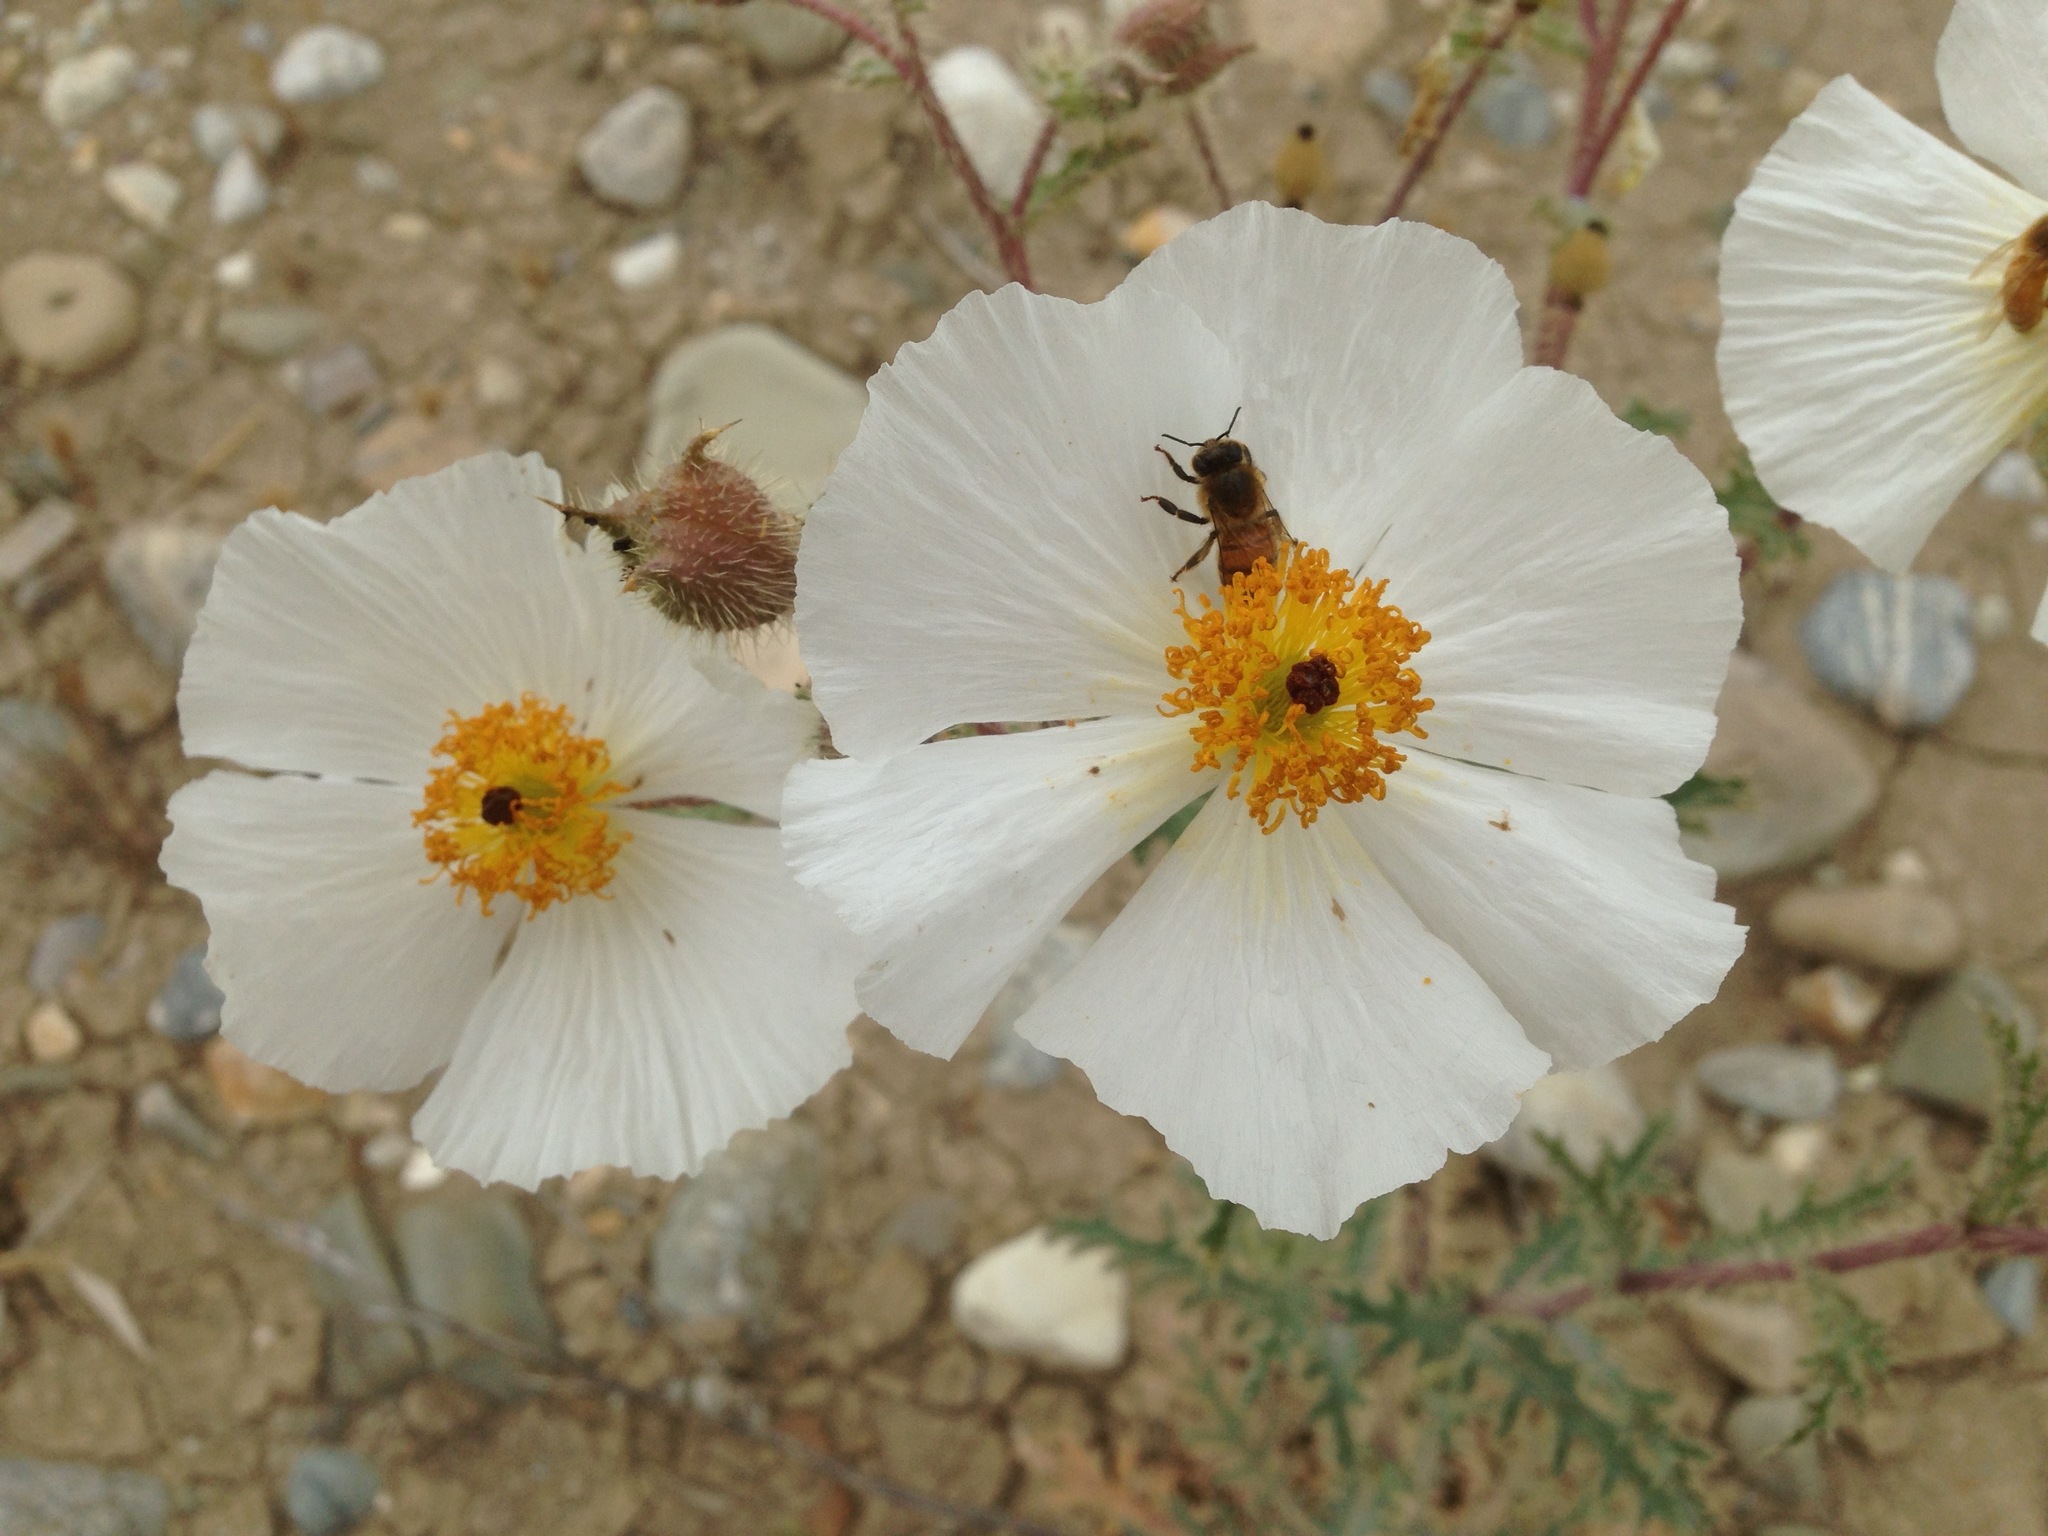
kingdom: Plantae
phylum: Tracheophyta
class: Magnoliopsida
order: Ranunculales
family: Papaveraceae
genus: Argemone
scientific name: Argemone munita
